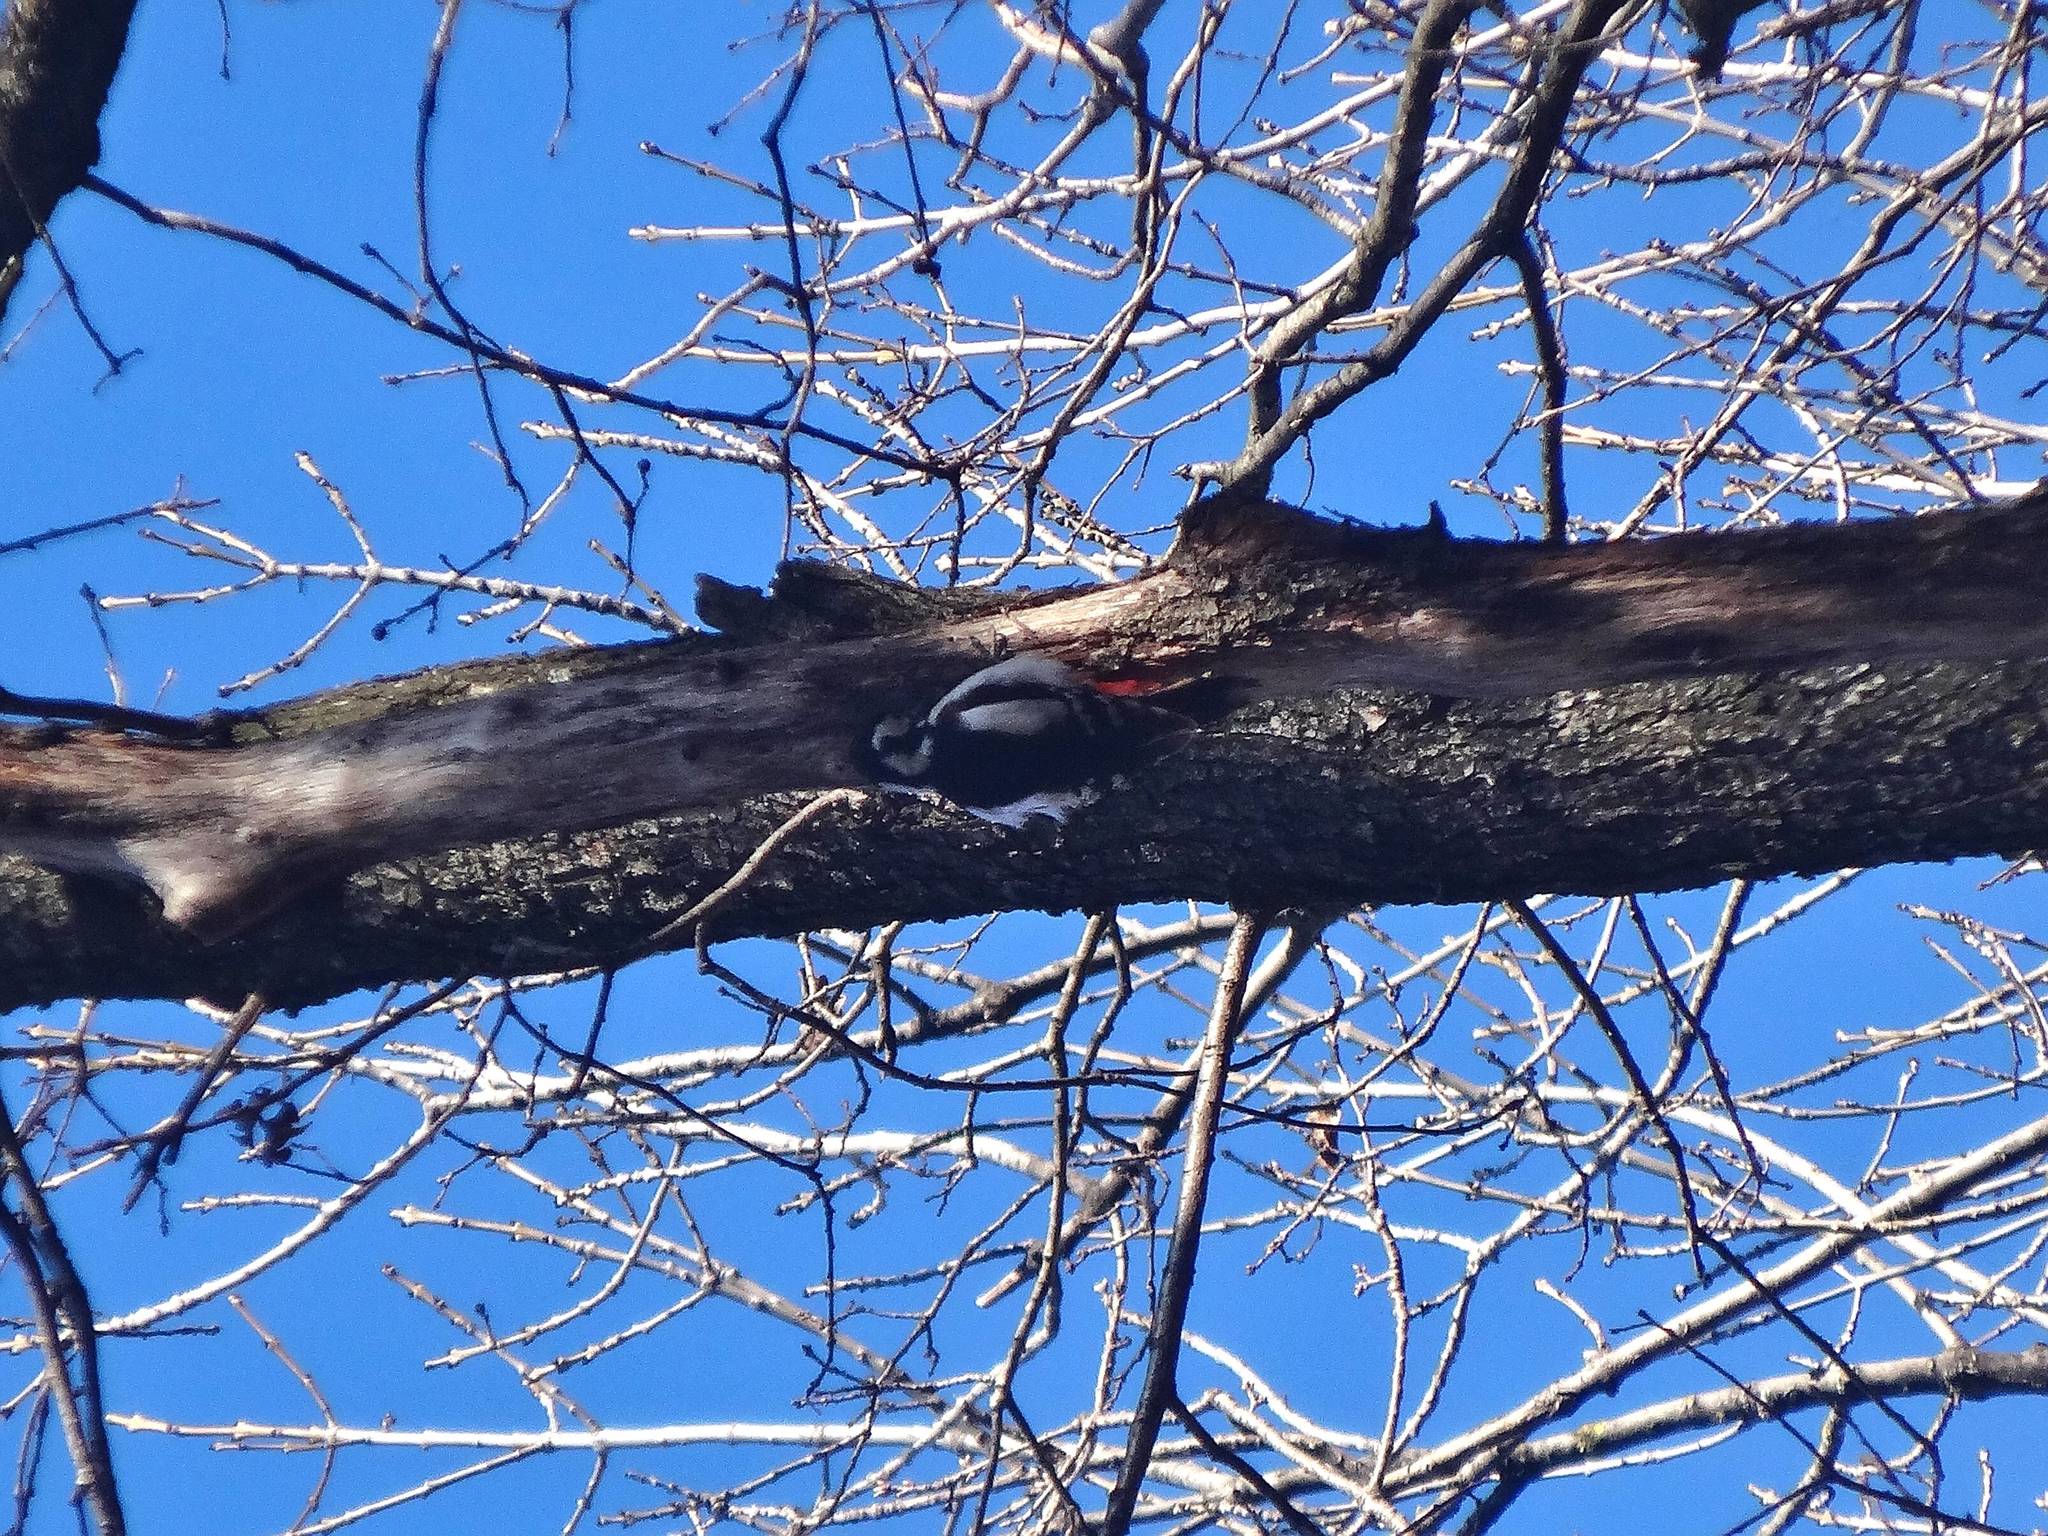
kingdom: Animalia
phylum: Chordata
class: Aves
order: Piciformes
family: Picidae
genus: Dendrocopos
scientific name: Dendrocopos major
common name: Great spotted woodpecker
